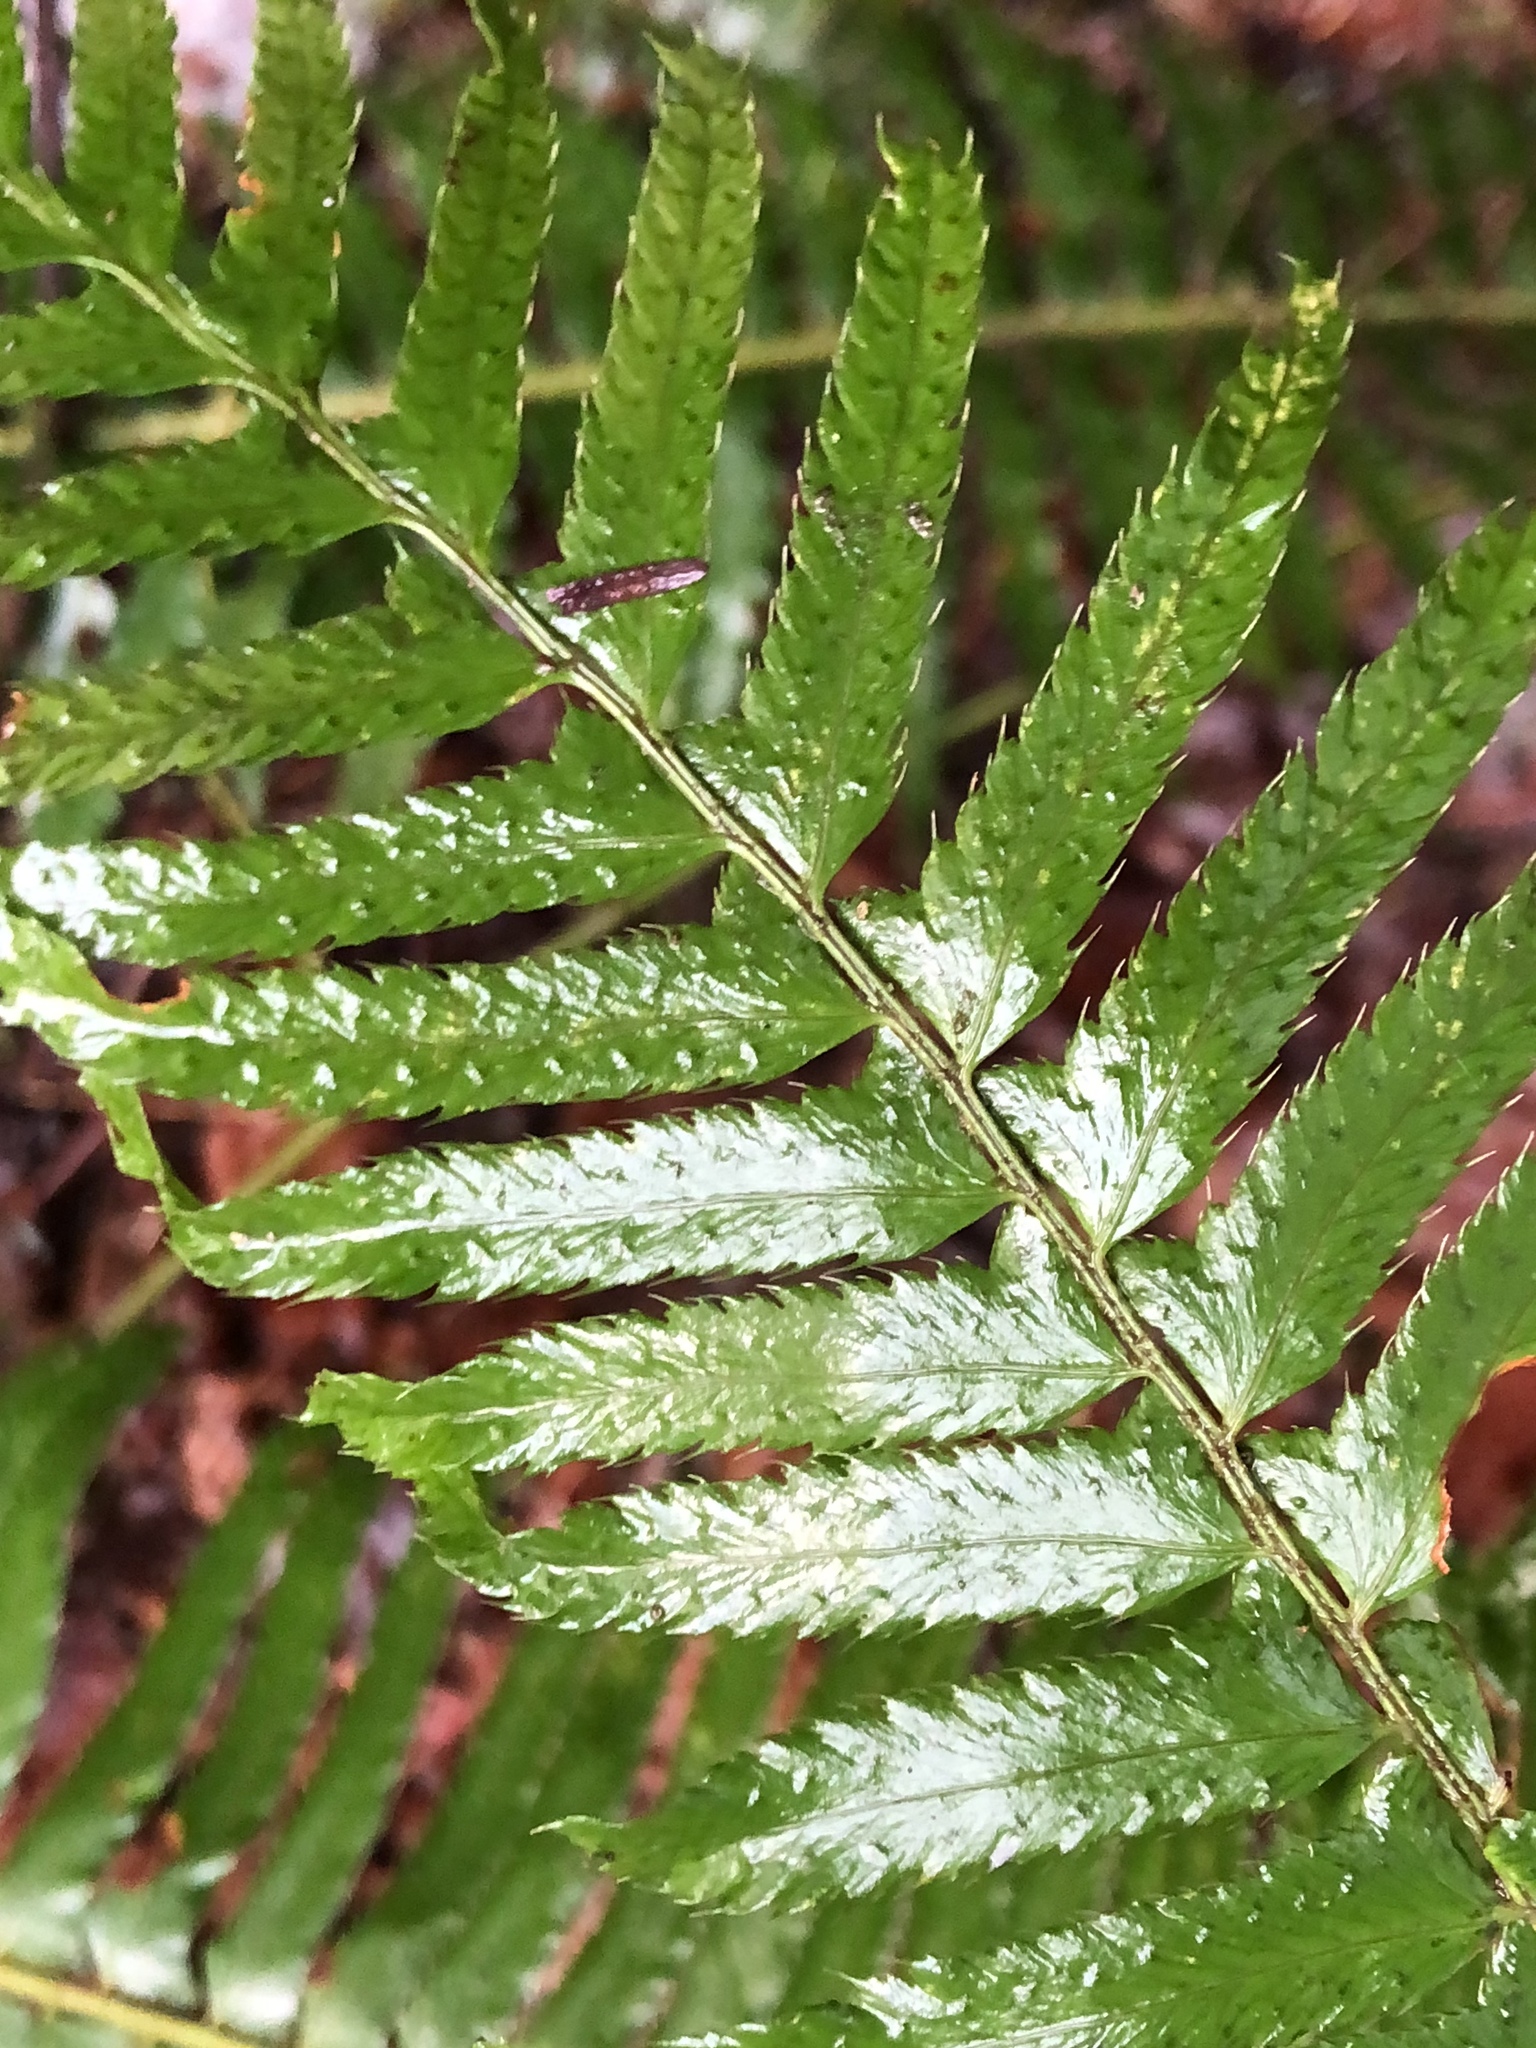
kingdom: Plantae
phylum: Tracheophyta
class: Polypodiopsida
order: Polypodiales
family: Dryopteridaceae
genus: Polystichum
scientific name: Polystichum munitum
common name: Western sword-fern
